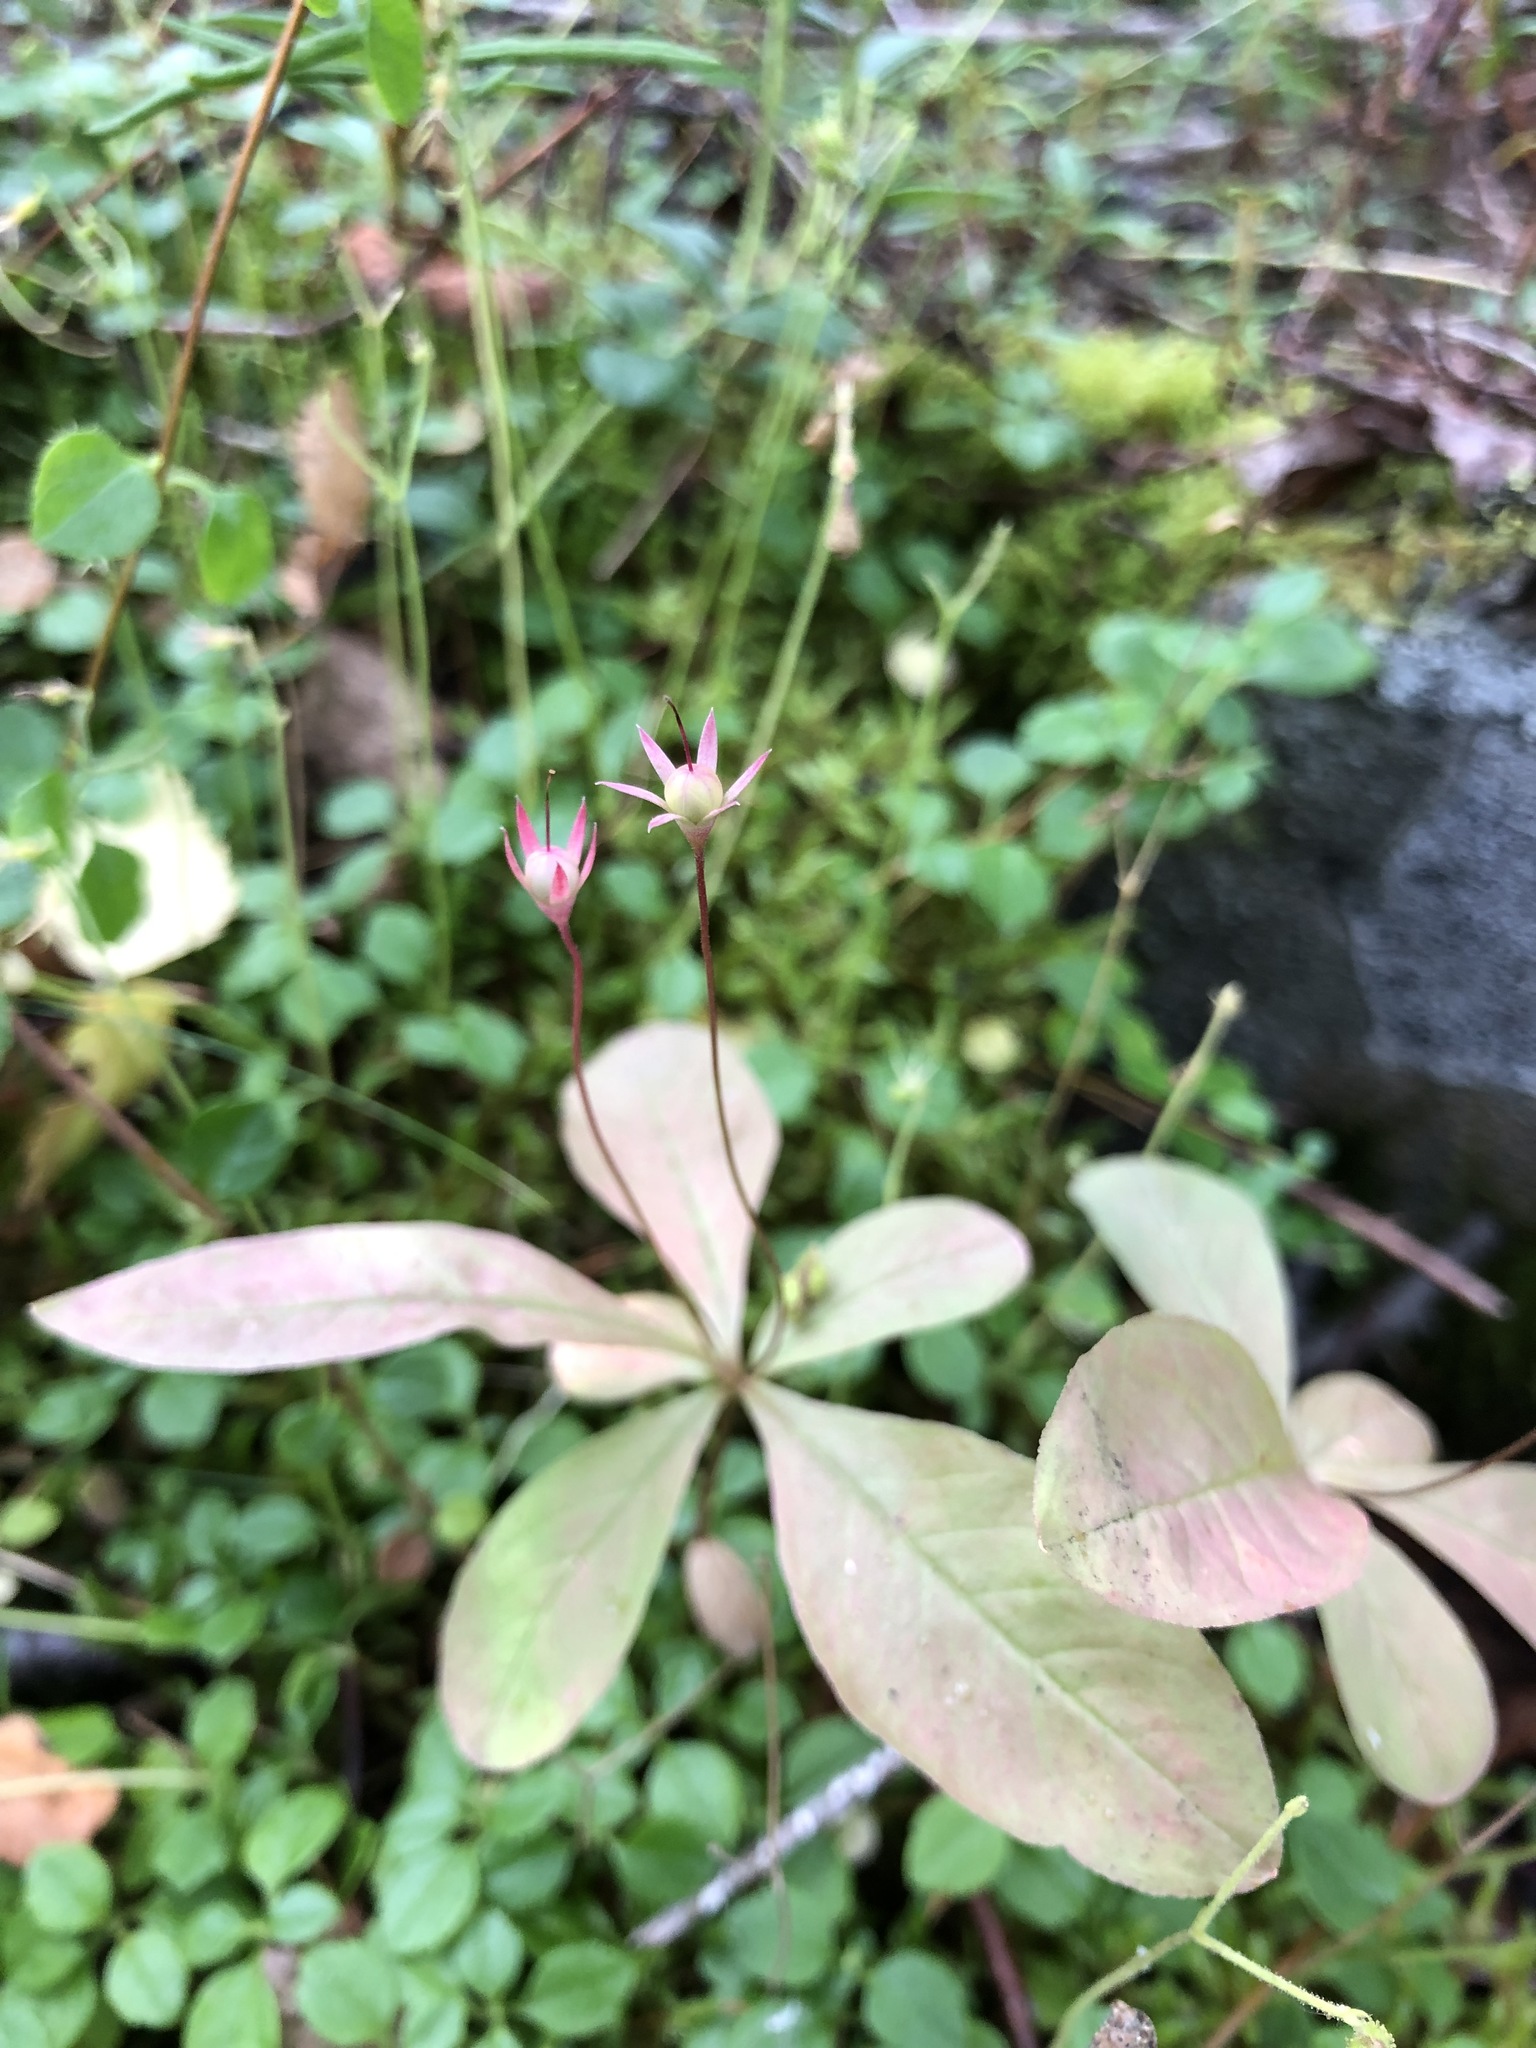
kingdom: Plantae
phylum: Tracheophyta
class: Magnoliopsida
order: Ericales
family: Primulaceae
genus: Lysimachia
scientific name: Lysimachia europaea
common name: Arctic starflower
